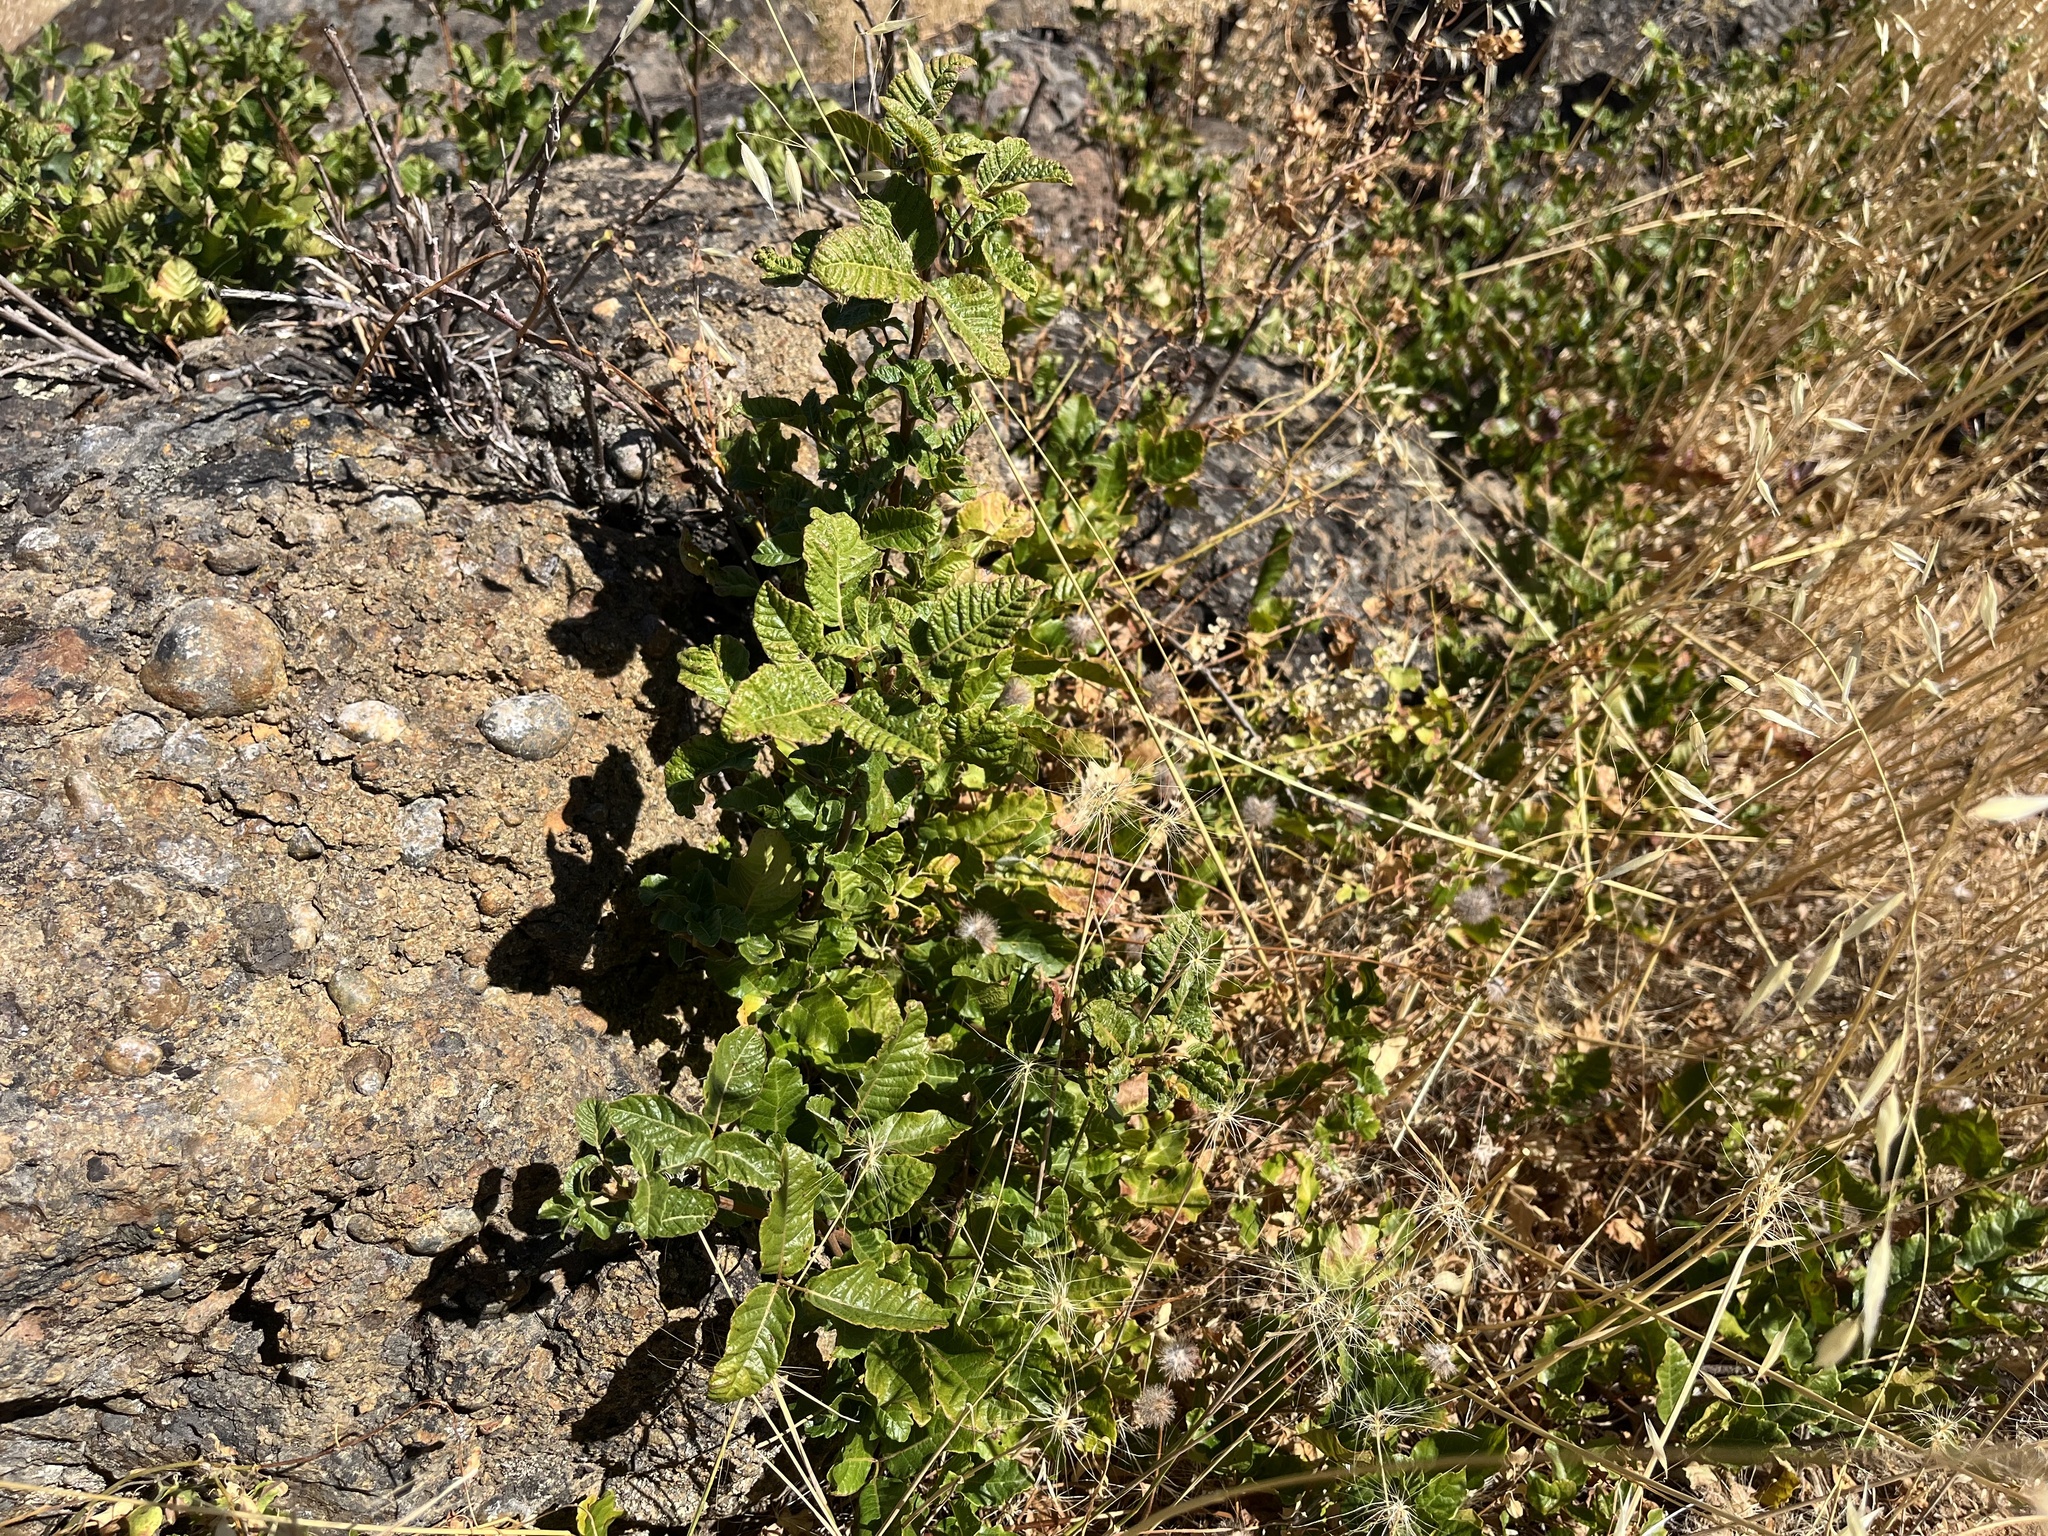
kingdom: Plantae
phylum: Tracheophyta
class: Magnoliopsida
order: Sapindales
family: Anacardiaceae
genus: Toxicodendron
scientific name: Toxicodendron diversilobum
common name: Pacific poison-oak
